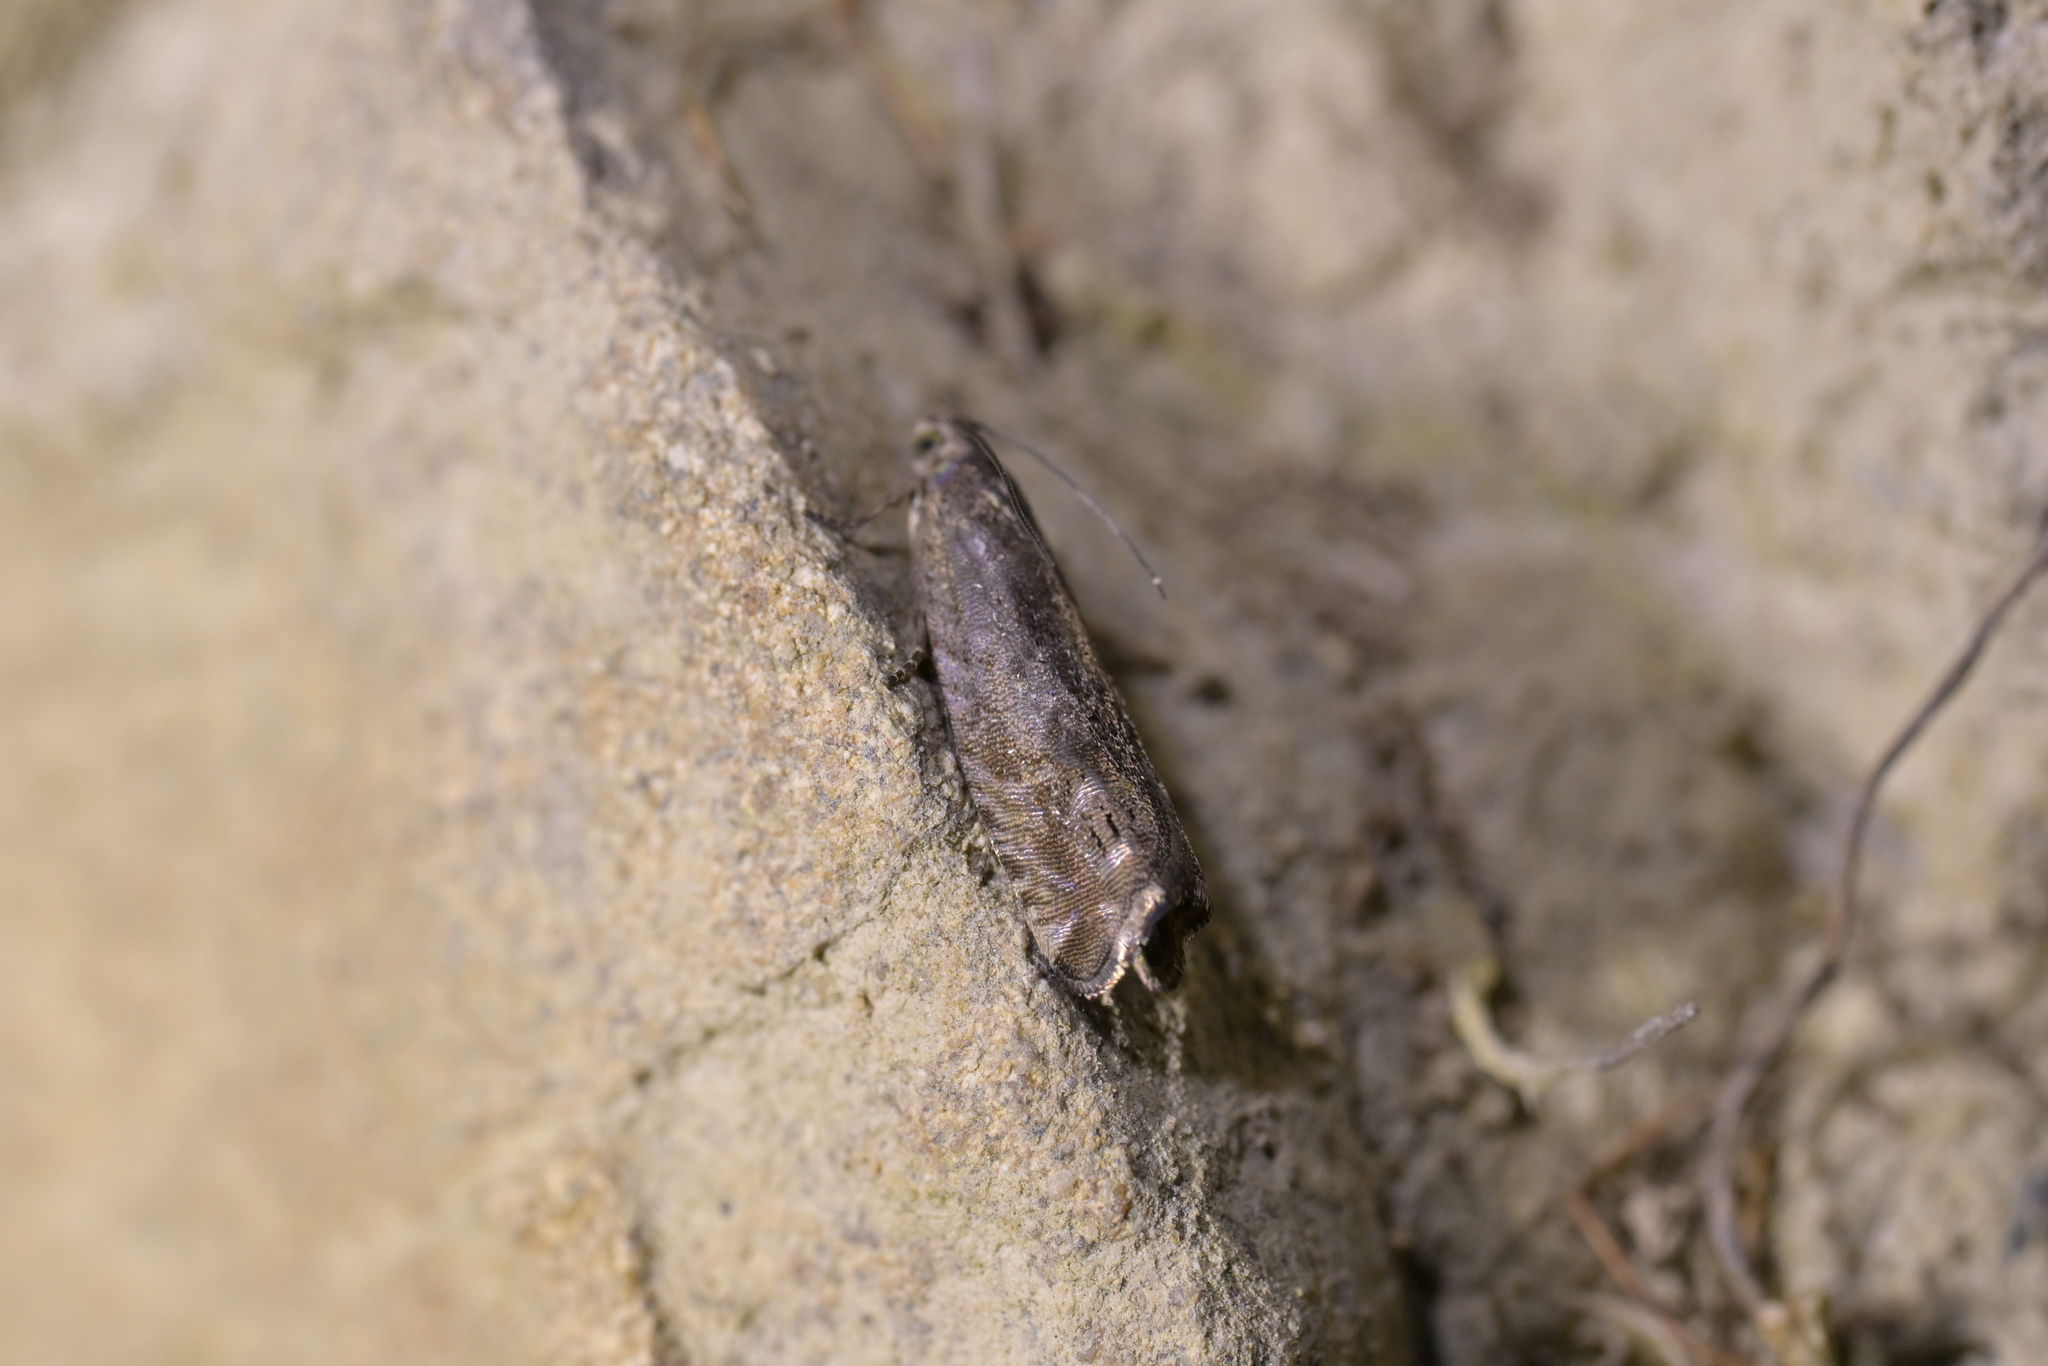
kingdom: Animalia
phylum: Arthropoda
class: Insecta
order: Lepidoptera
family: Tortricidae
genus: Cydia
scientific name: Cydia succedana
